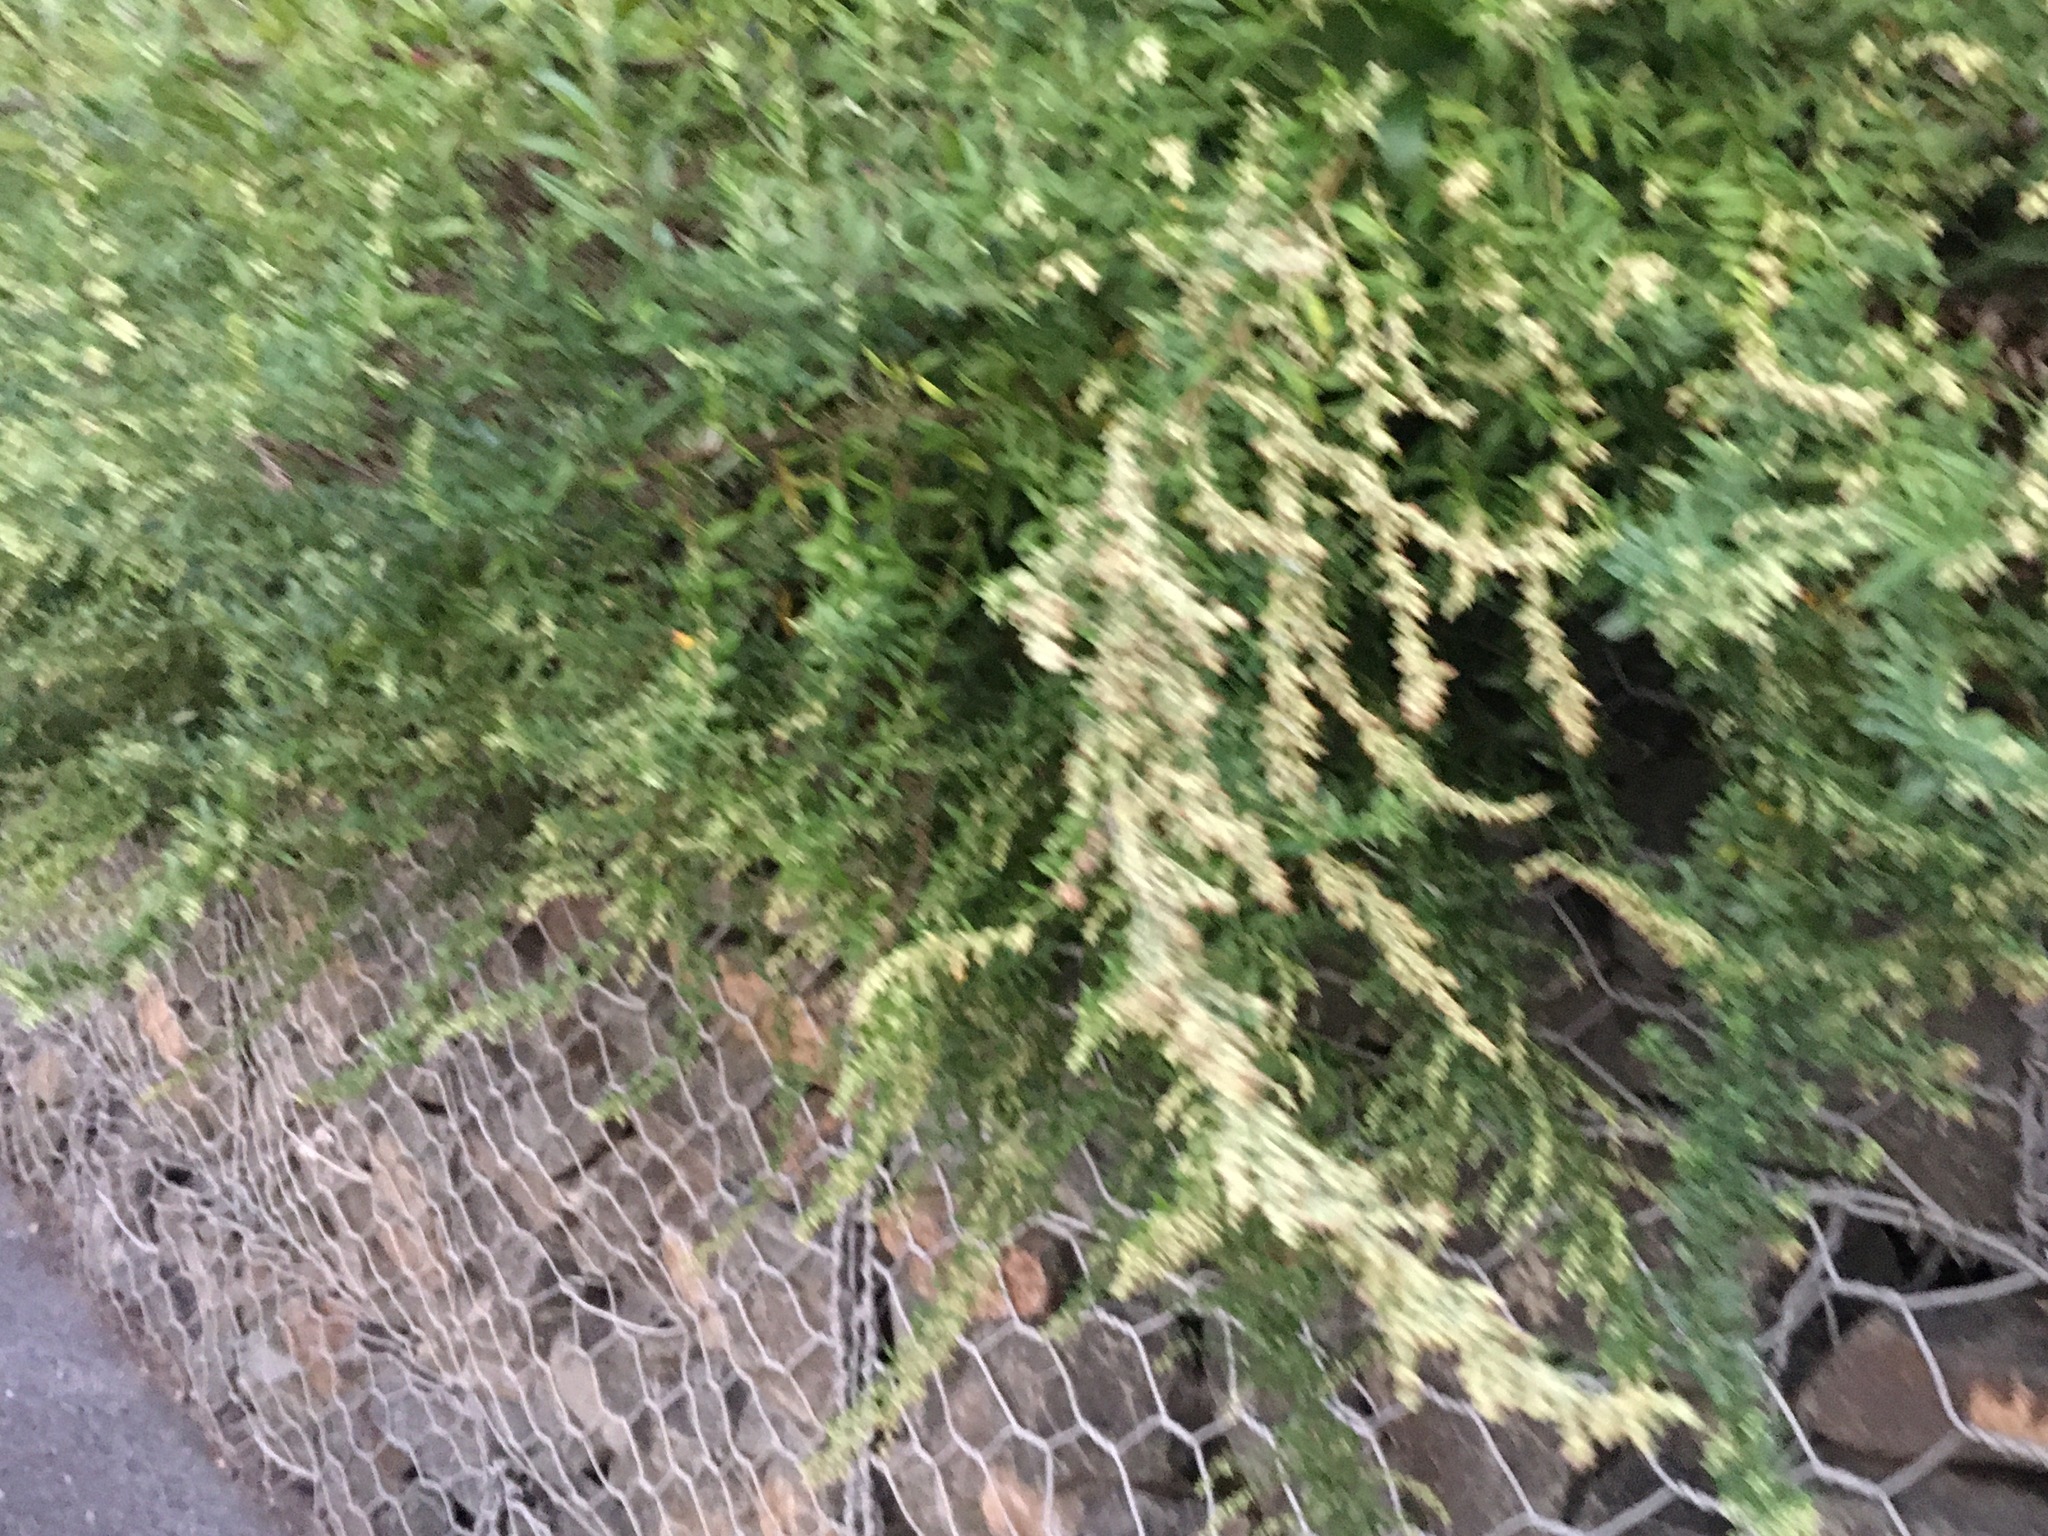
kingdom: Plantae
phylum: Tracheophyta
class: Magnoliopsida
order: Asterales
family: Asteraceae
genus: Artemisia
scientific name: Artemisia vulgaris
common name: Mugwort
